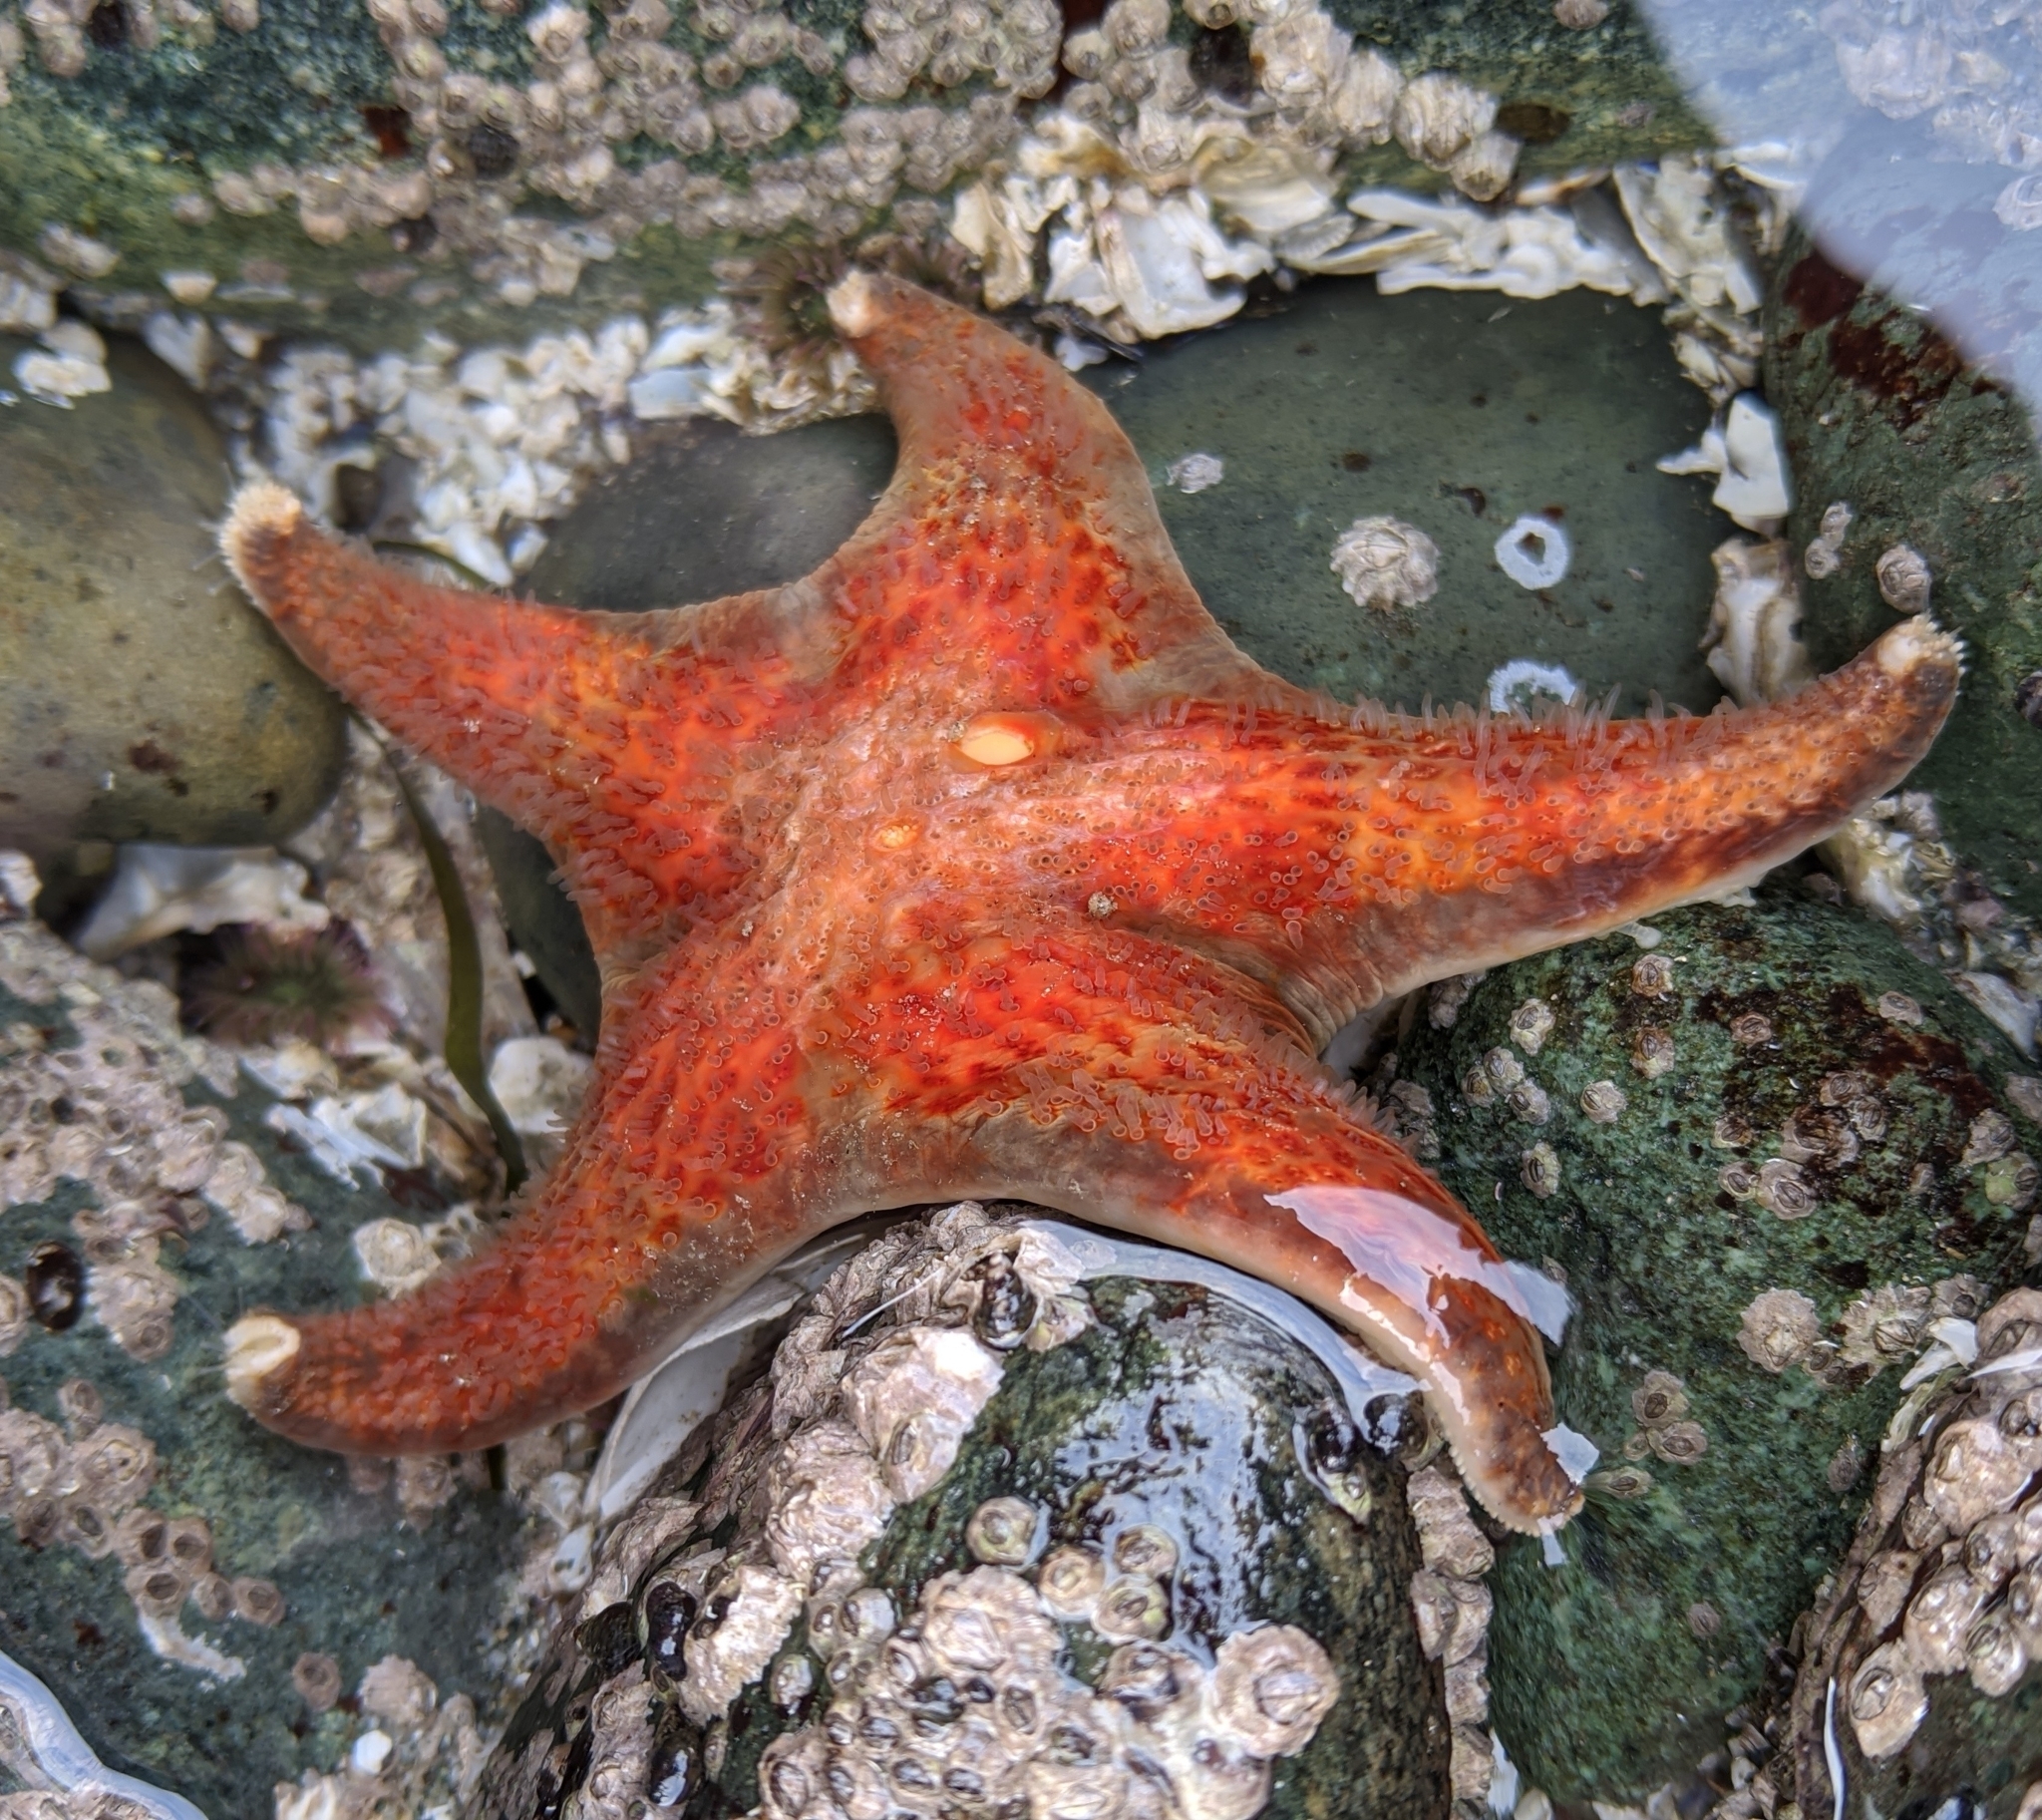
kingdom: Animalia
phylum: Echinodermata
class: Asteroidea
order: Valvatida
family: Asteropseidae
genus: Dermasterias
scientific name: Dermasterias imbricata
